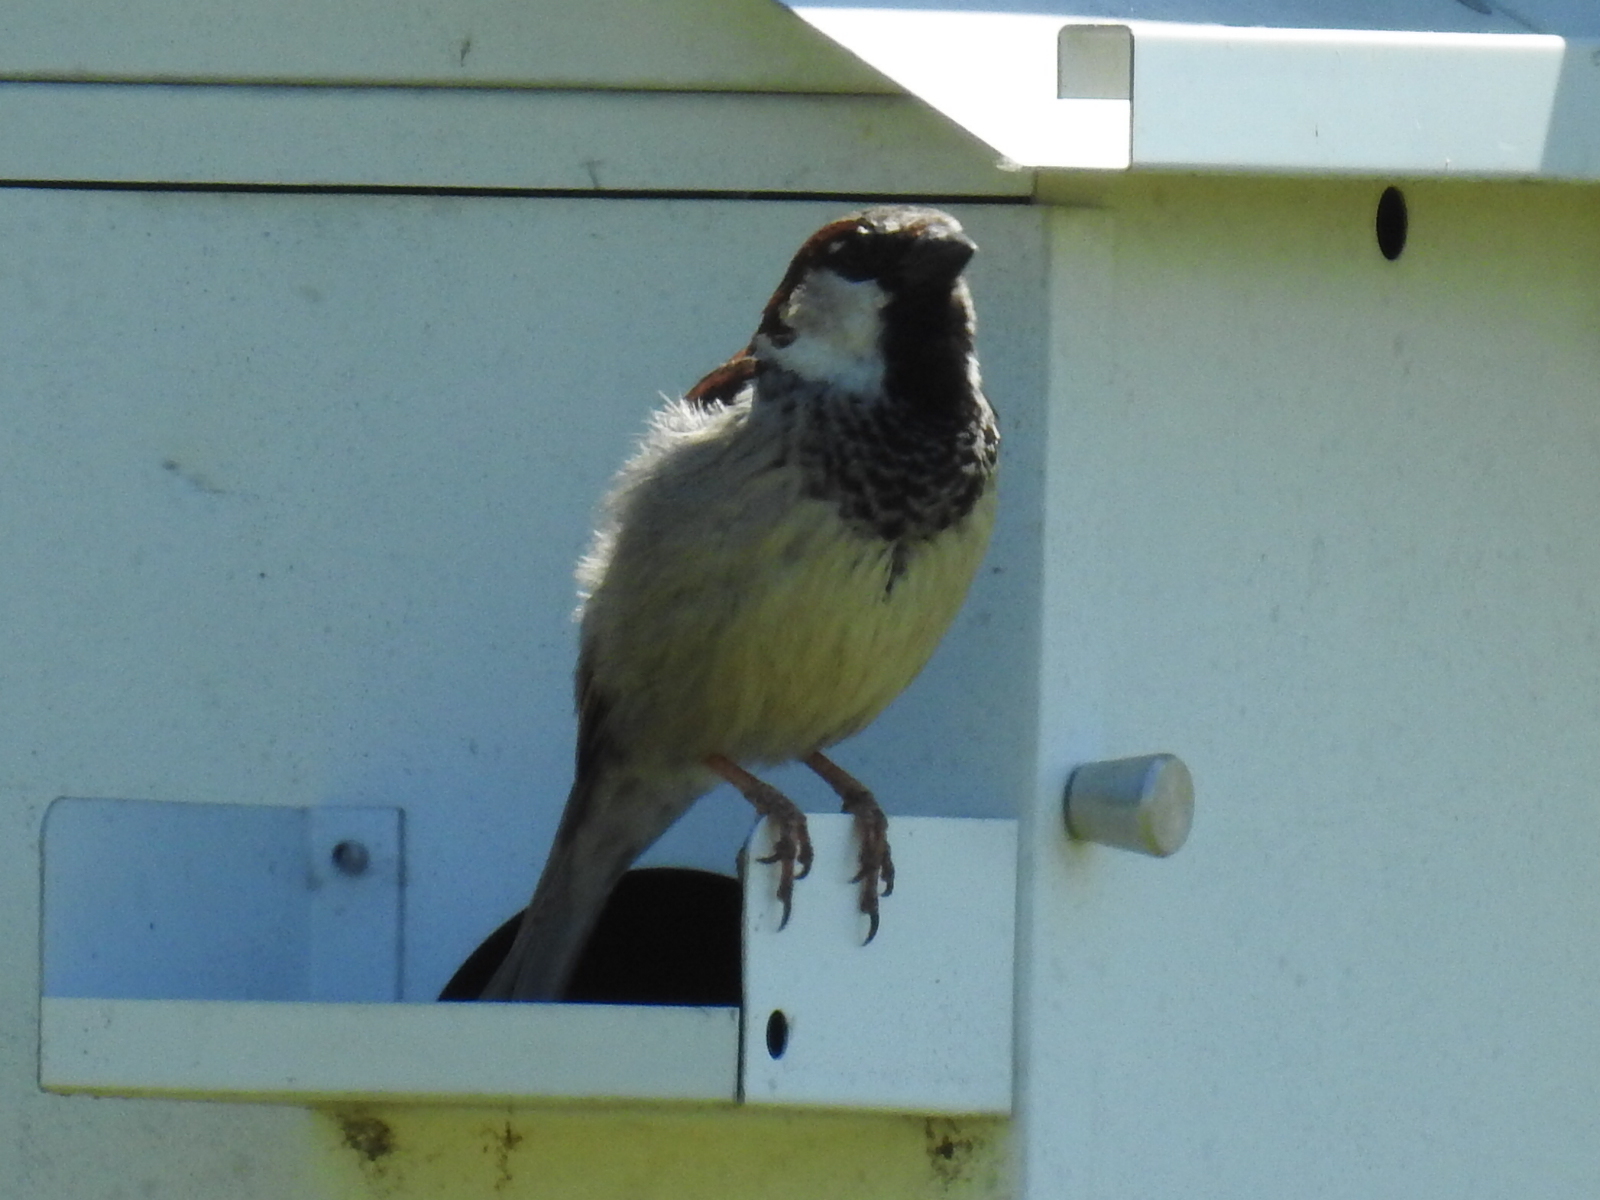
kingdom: Animalia
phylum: Chordata
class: Aves
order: Passeriformes
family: Passeridae
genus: Passer
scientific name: Passer domesticus
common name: House sparrow
